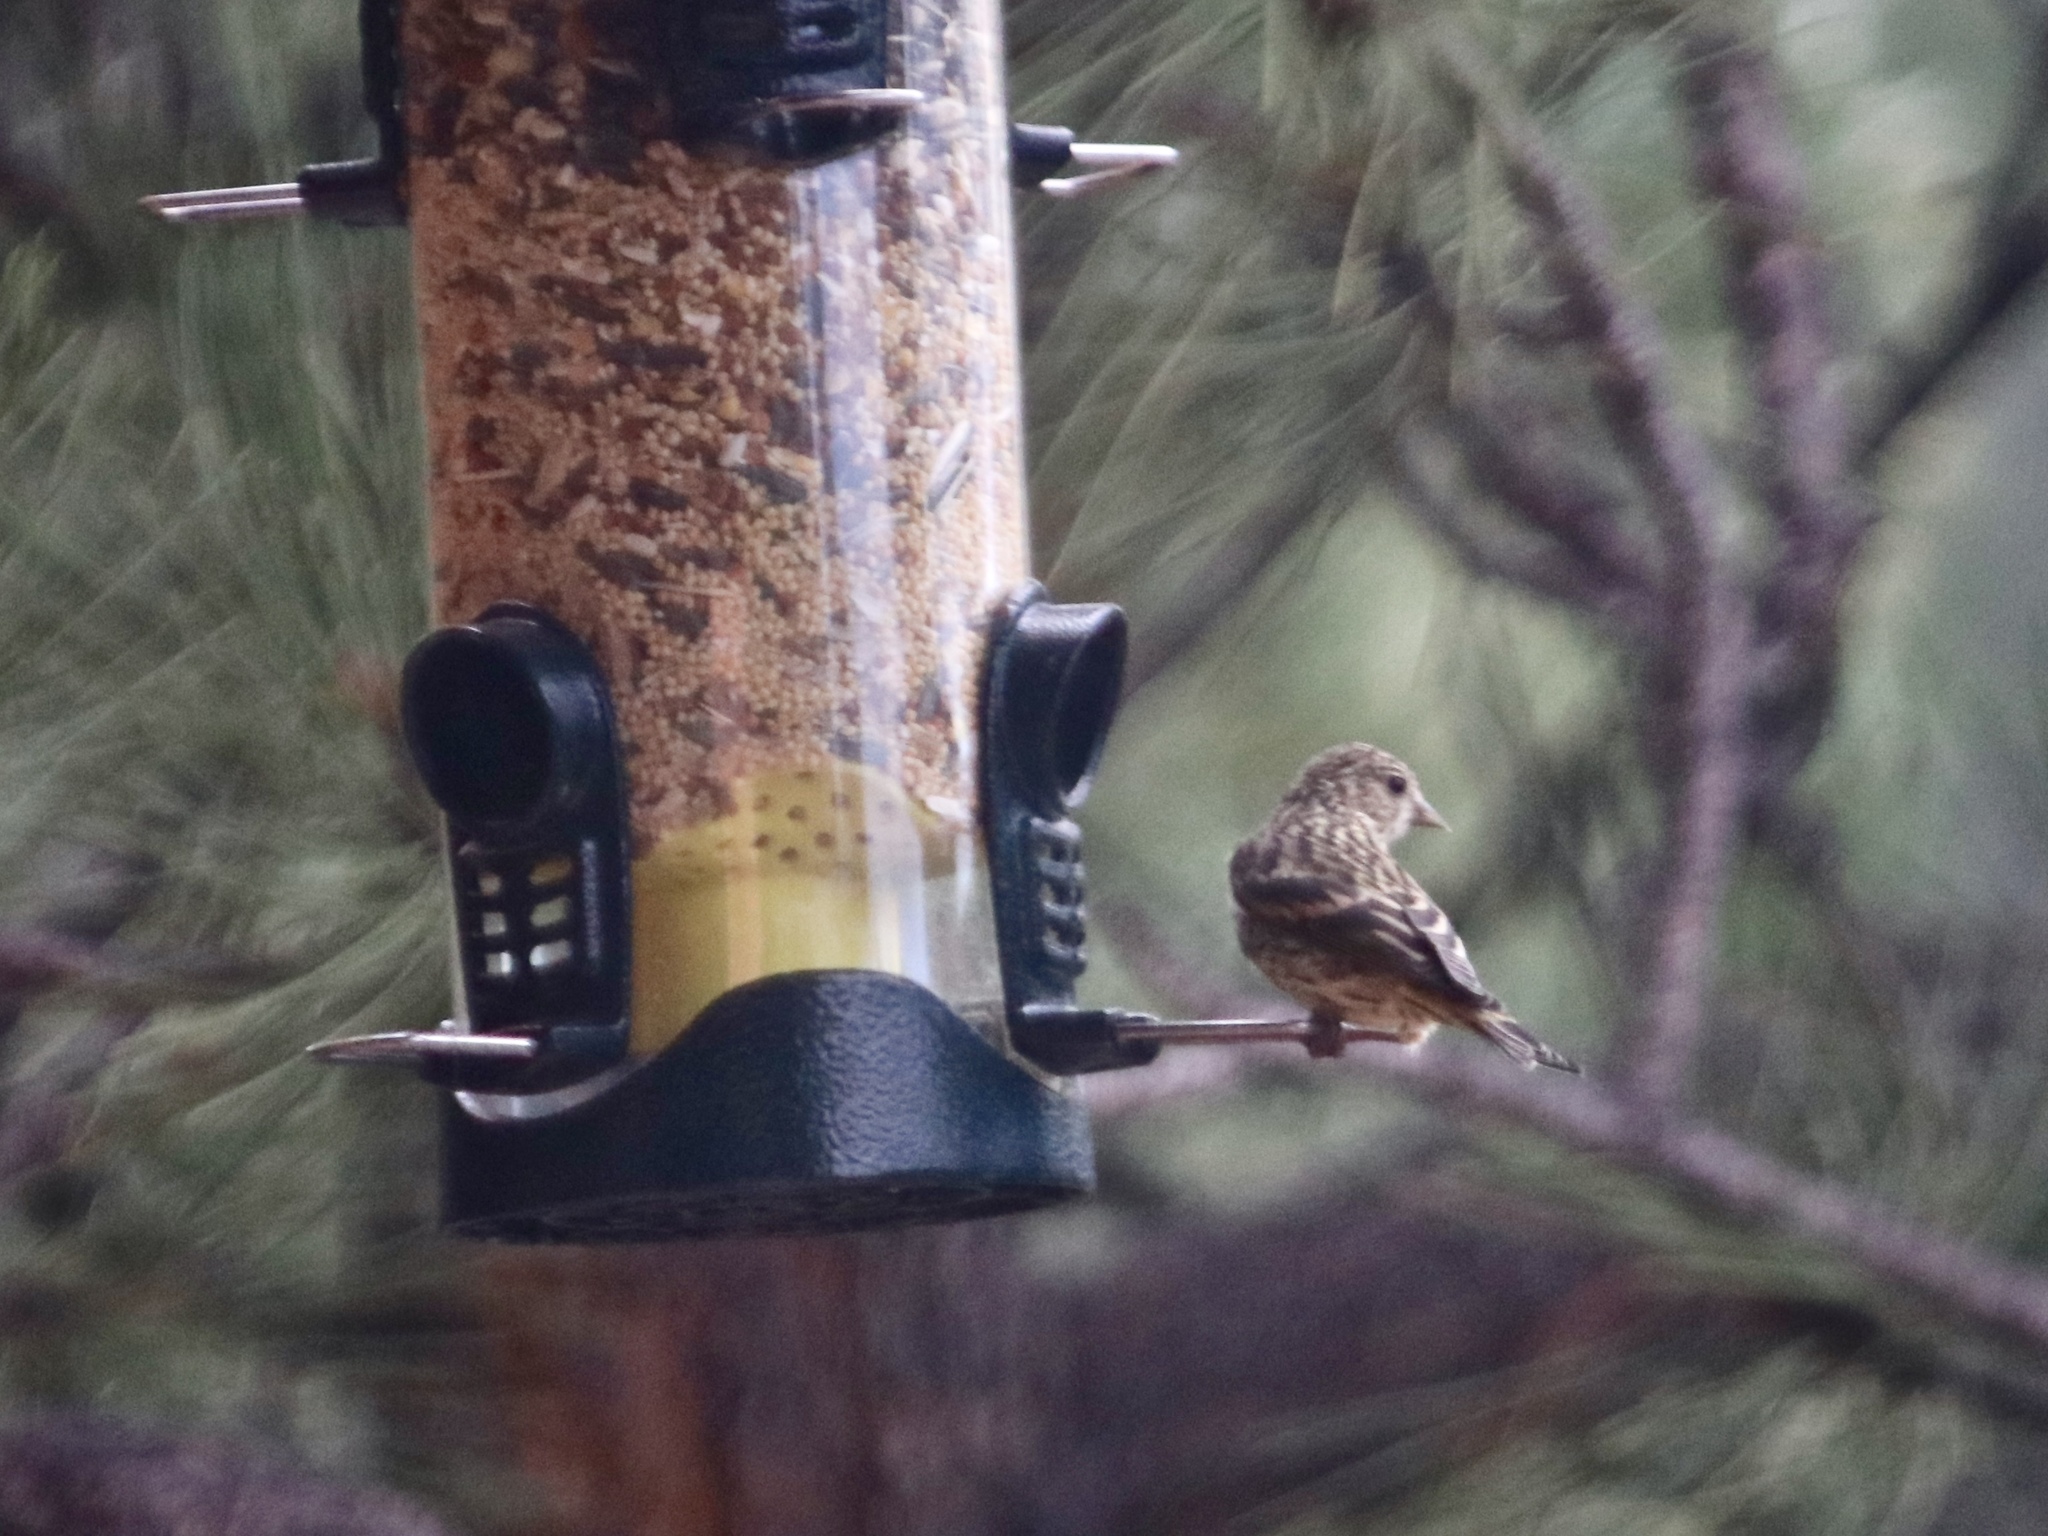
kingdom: Animalia
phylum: Chordata
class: Aves
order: Passeriformes
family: Fringillidae
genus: Spinus
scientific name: Spinus pinus
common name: Pine siskin
